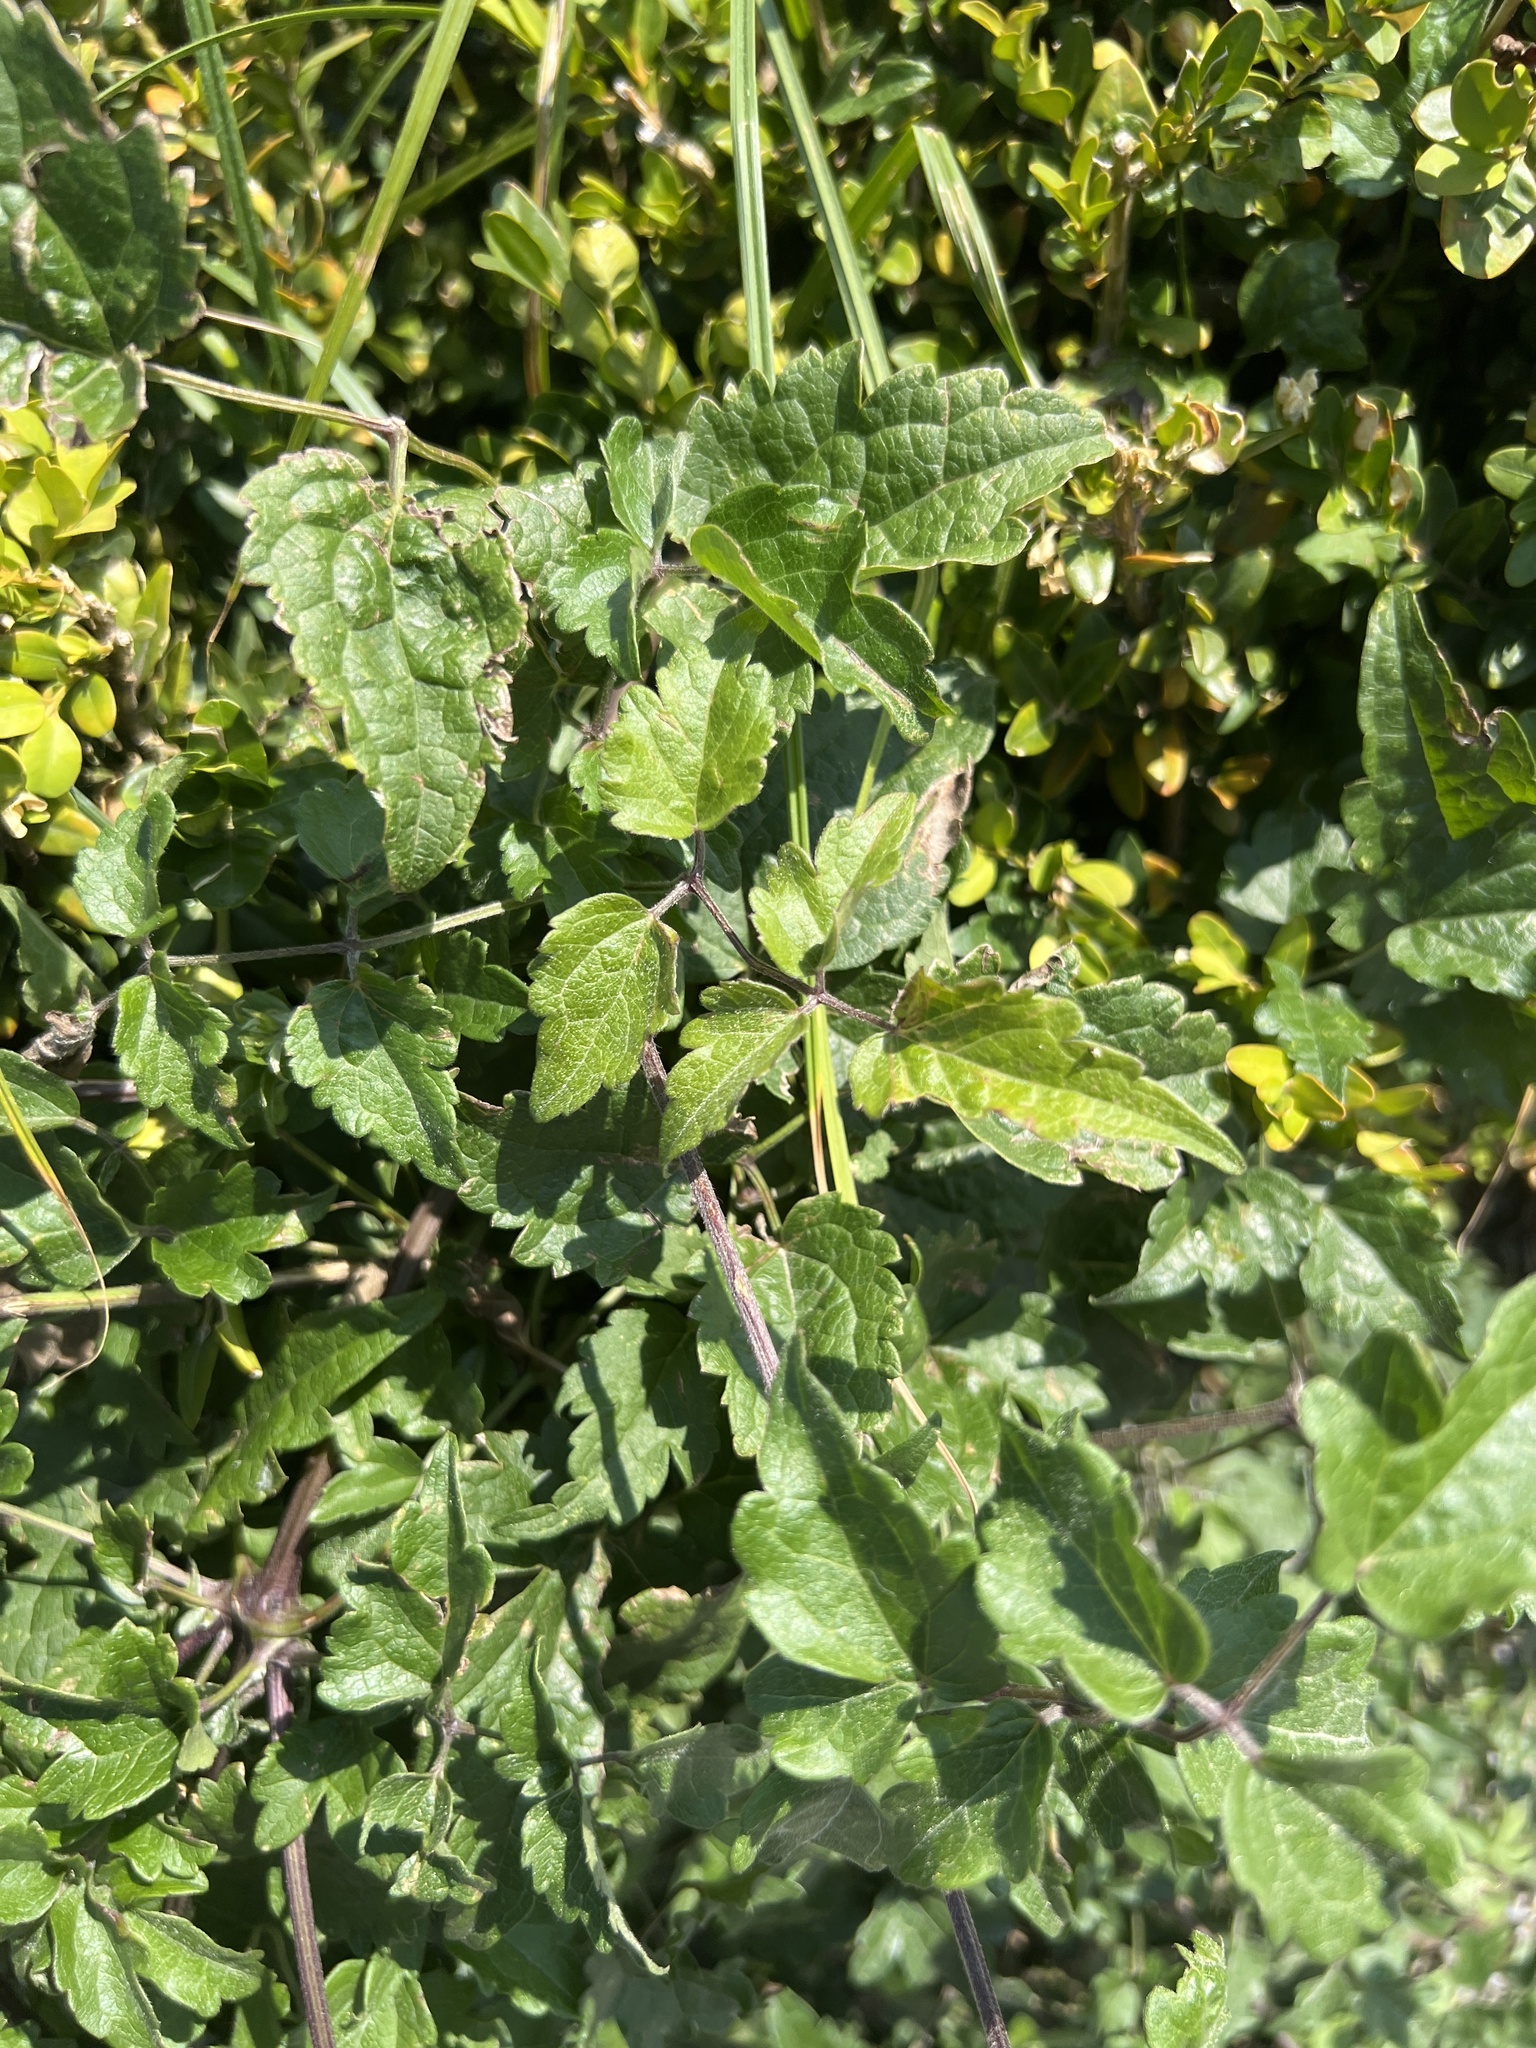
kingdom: Plantae
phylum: Tracheophyta
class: Magnoliopsida
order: Ranunculales
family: Ranunculaceae
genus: Clematis
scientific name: Clematis vitalba
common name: Evergreen clematis
